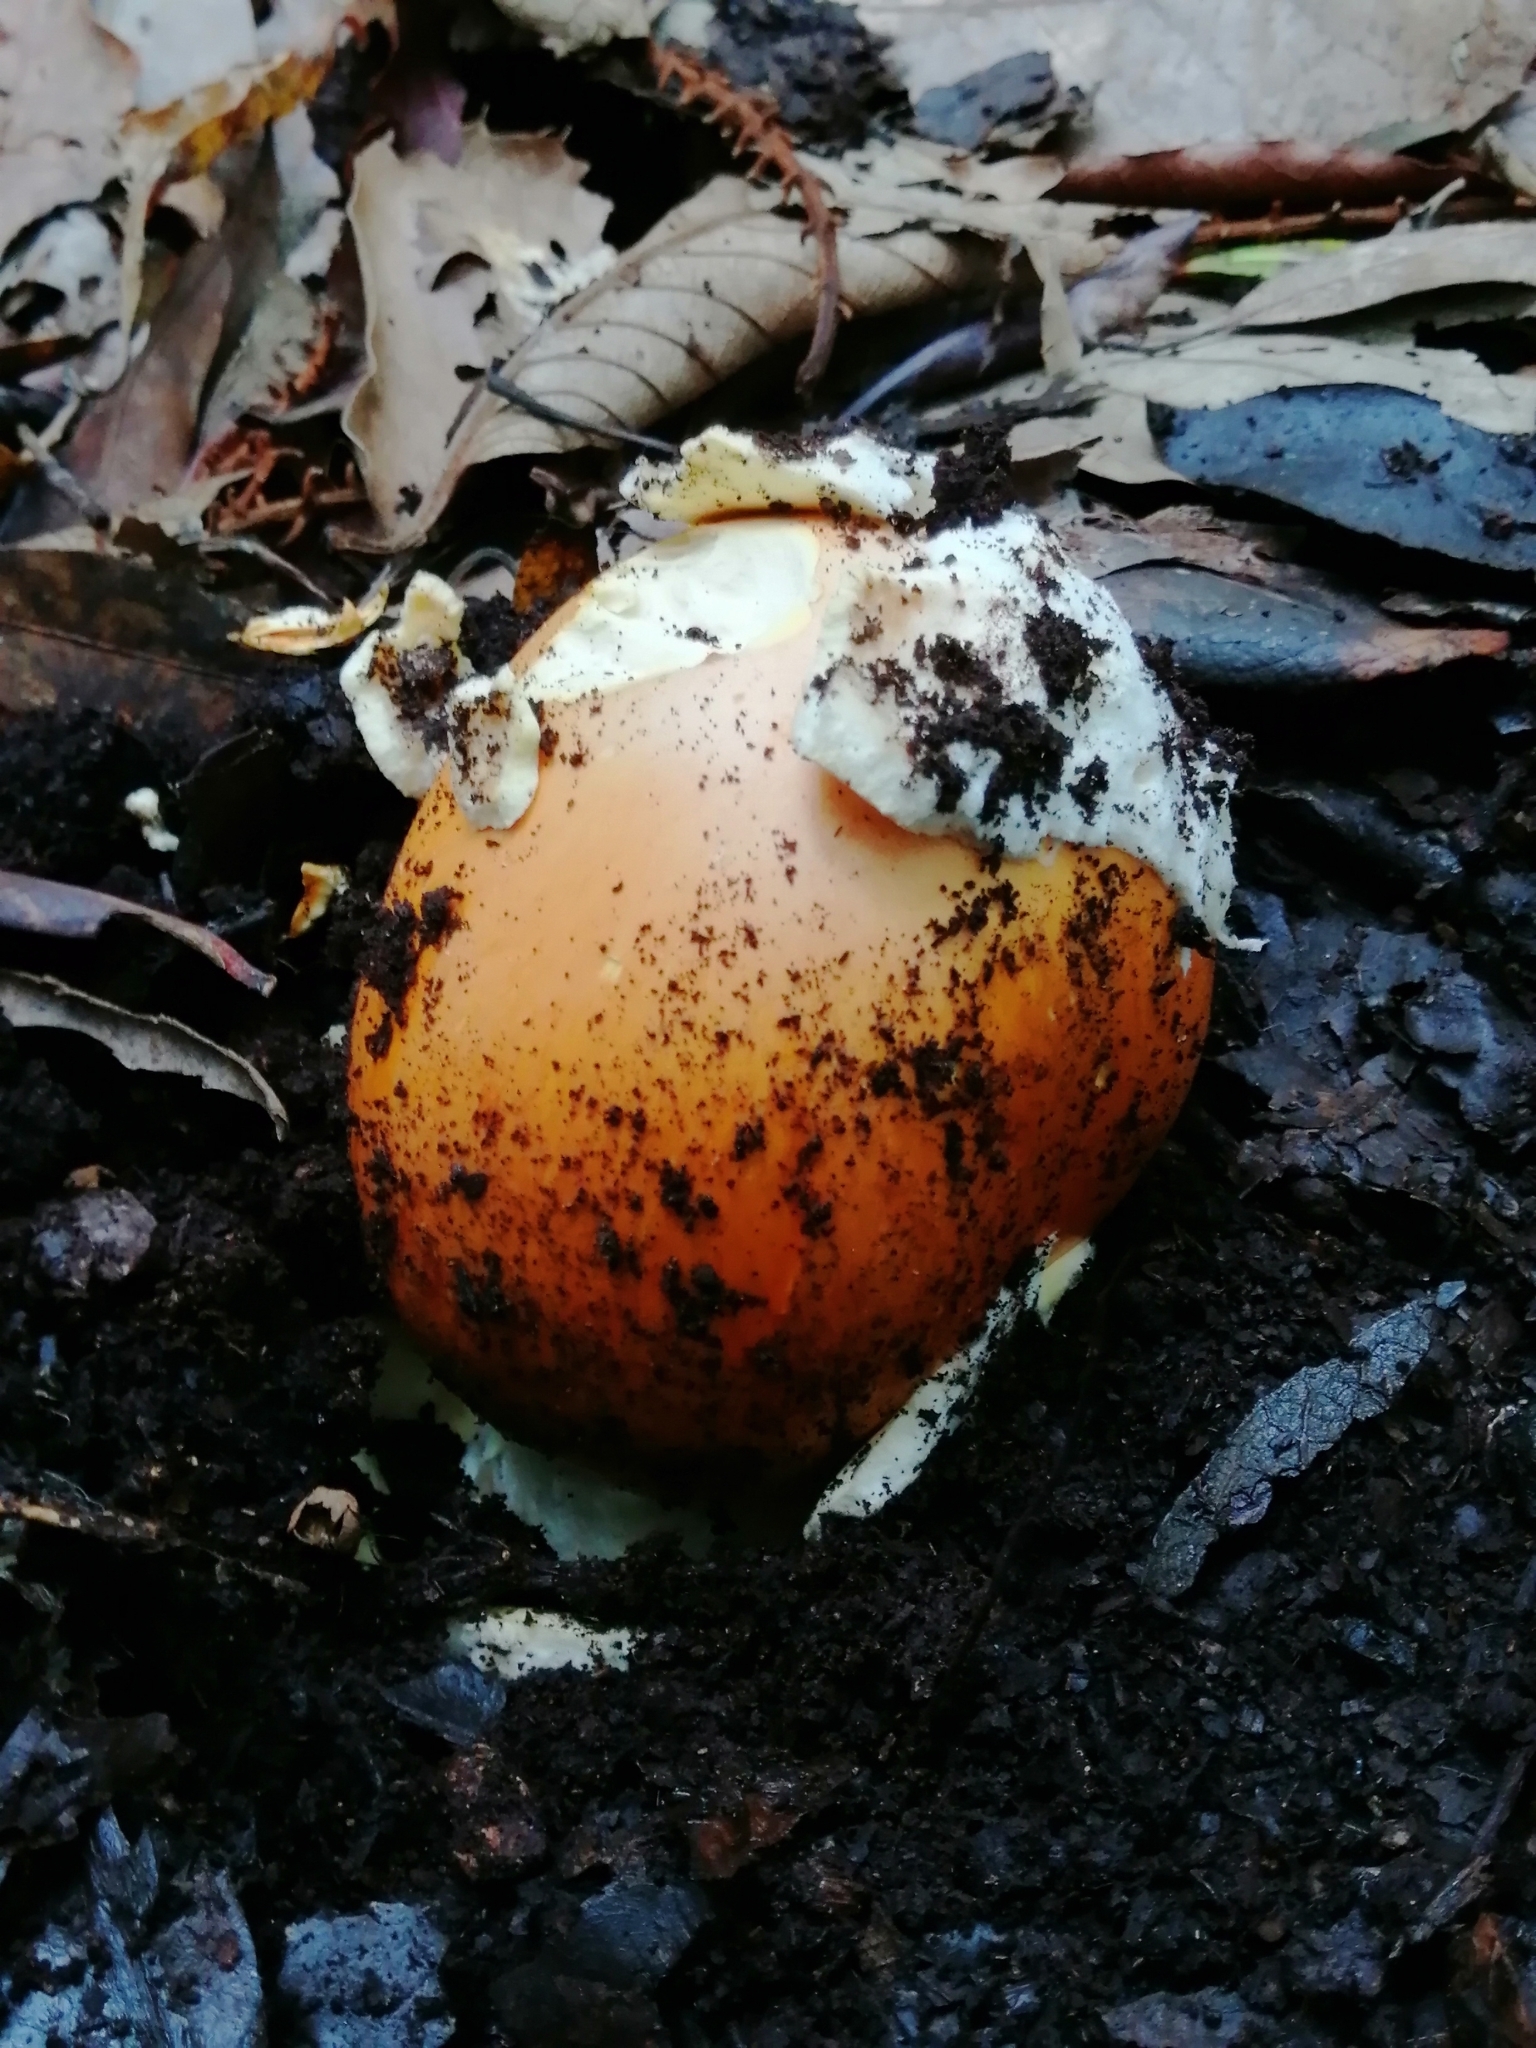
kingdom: Fungi
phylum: Basidiomycota
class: Agaricomycetes
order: Agaricales
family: Amanitaceae
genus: Amanita
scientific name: Amanita basii
